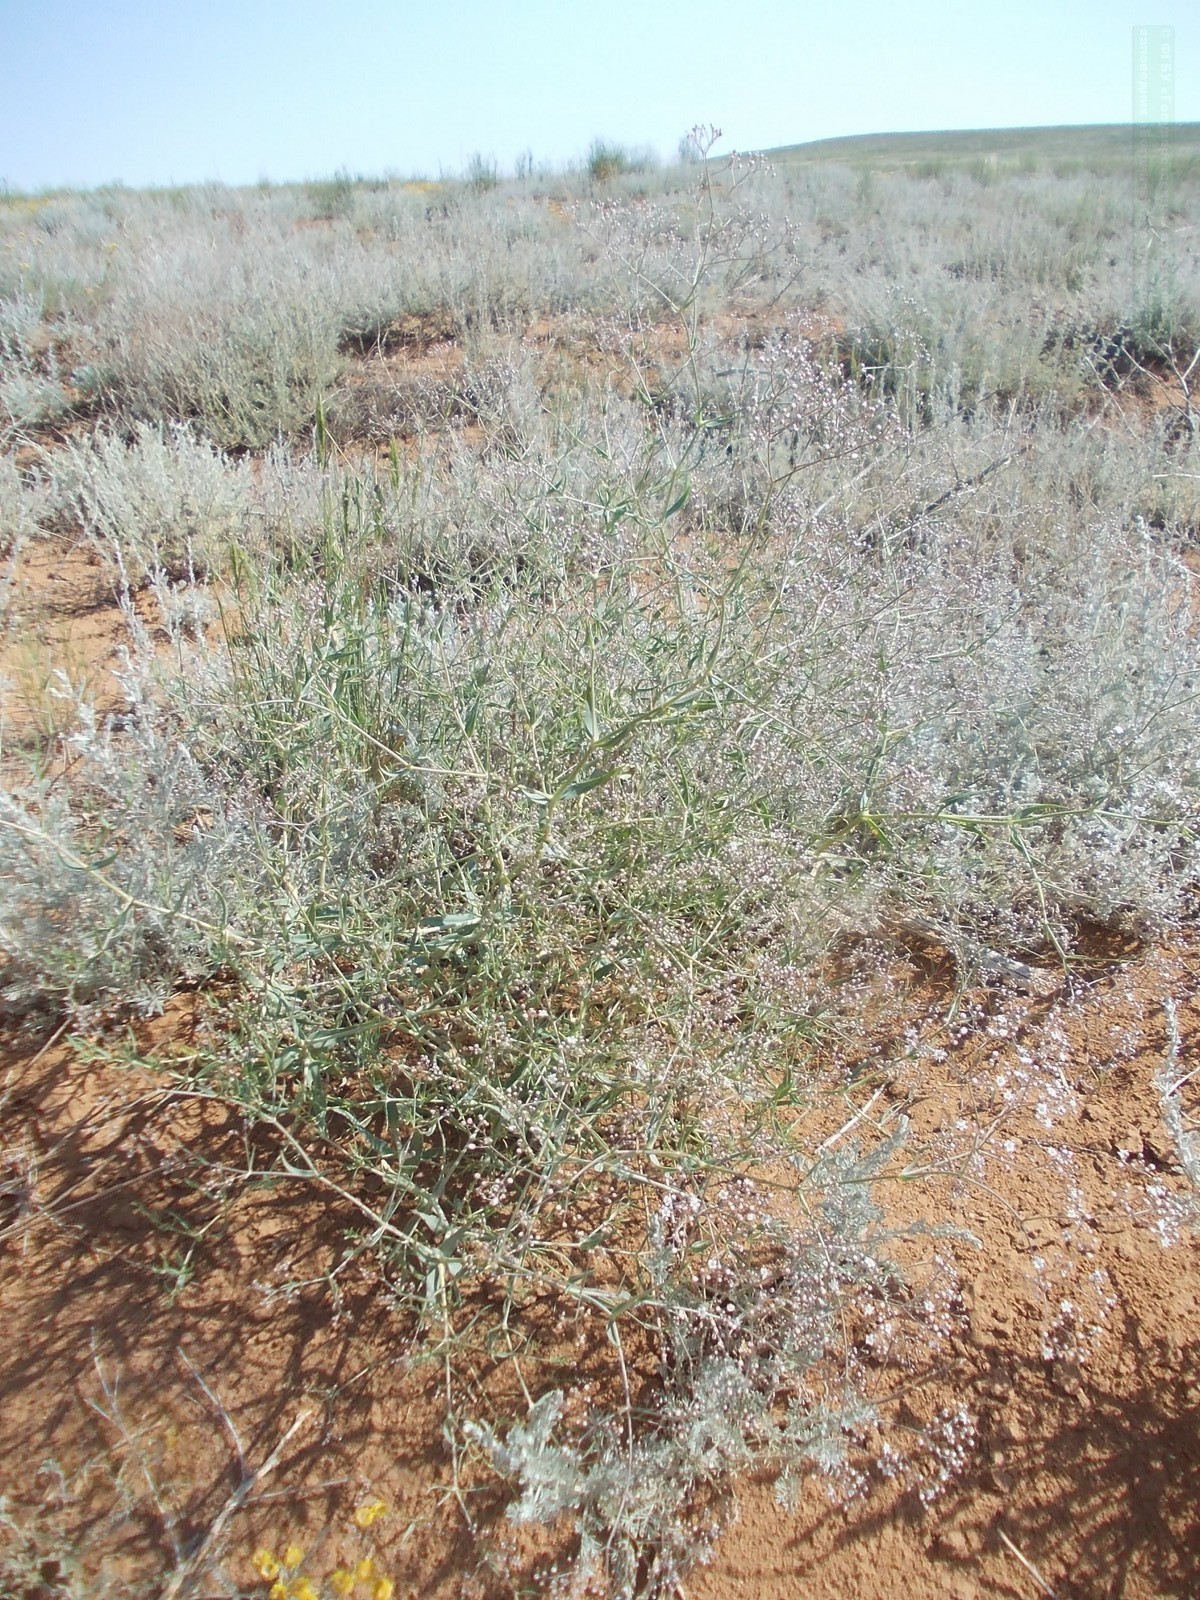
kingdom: Plantae
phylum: Tracheophyta
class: Magnoliopsida
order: Caryophyllales
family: Caryophyllaceae
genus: Gypsophila
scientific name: Gypsophila paniculata
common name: Baby's-breath
